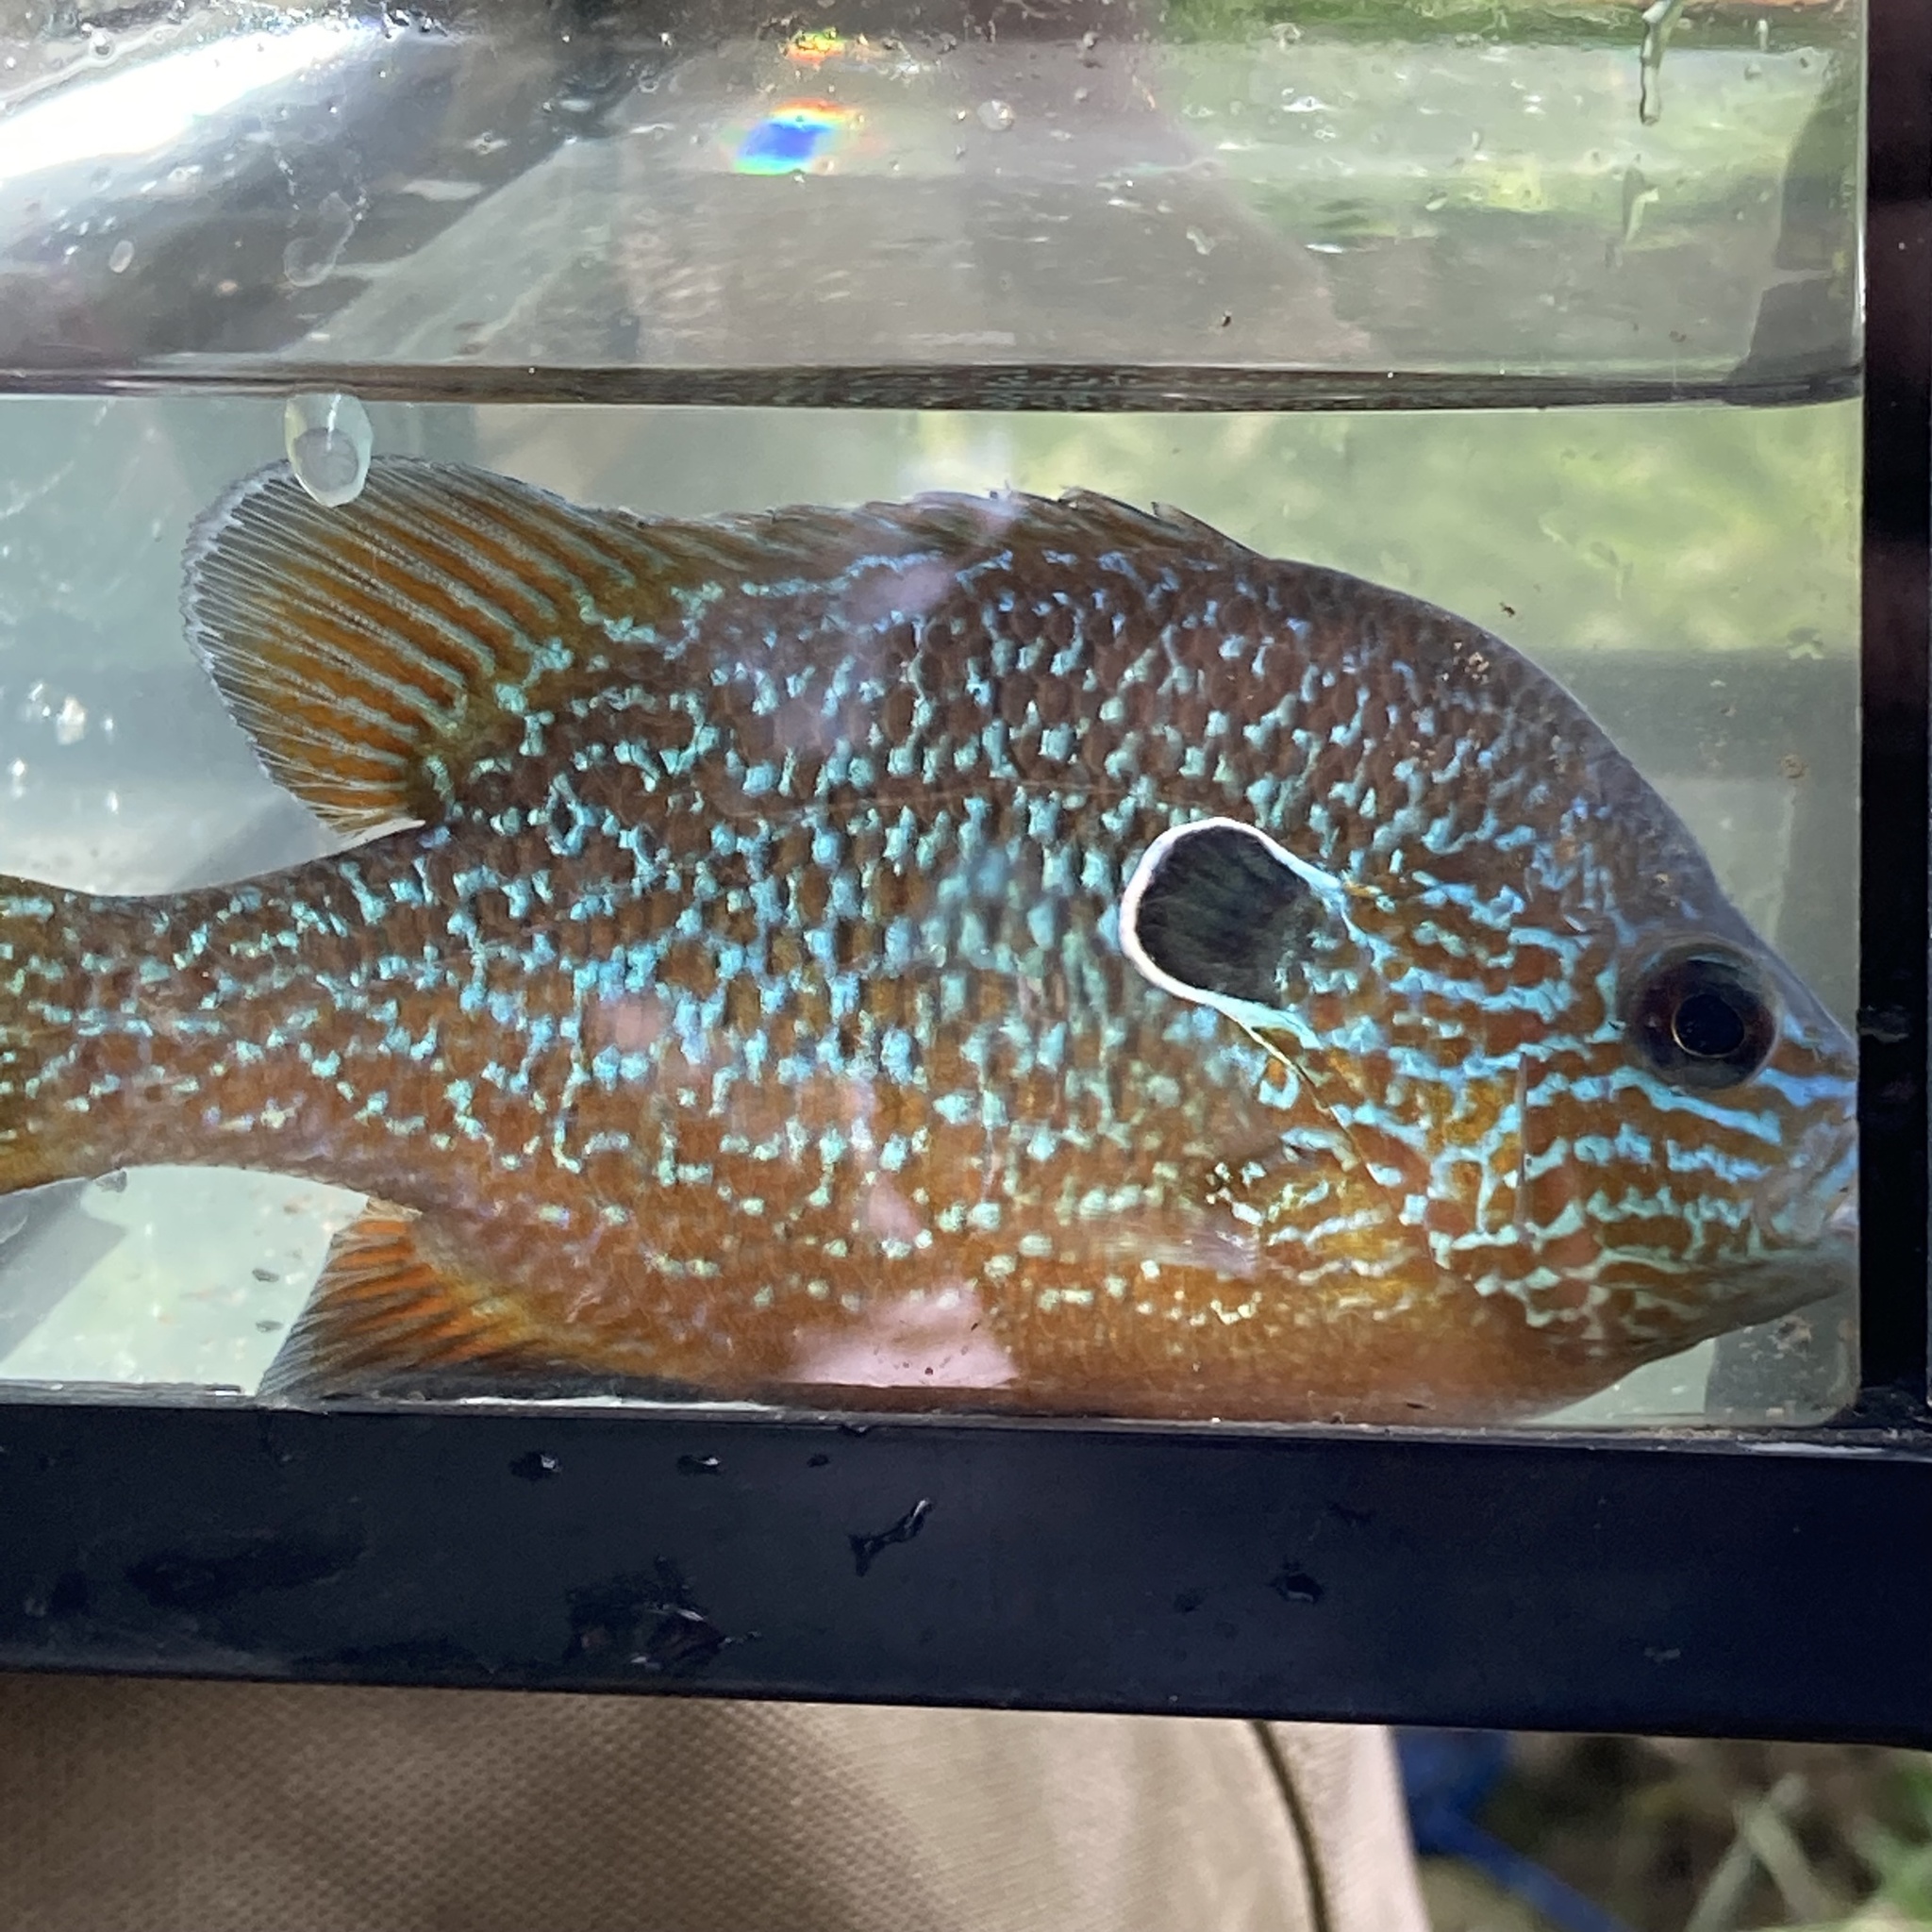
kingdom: Animalia
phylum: Chordata
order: Perciformes
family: Centrarchidae
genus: Lepomis
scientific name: Lepomis megalotis
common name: Longear sunfish
